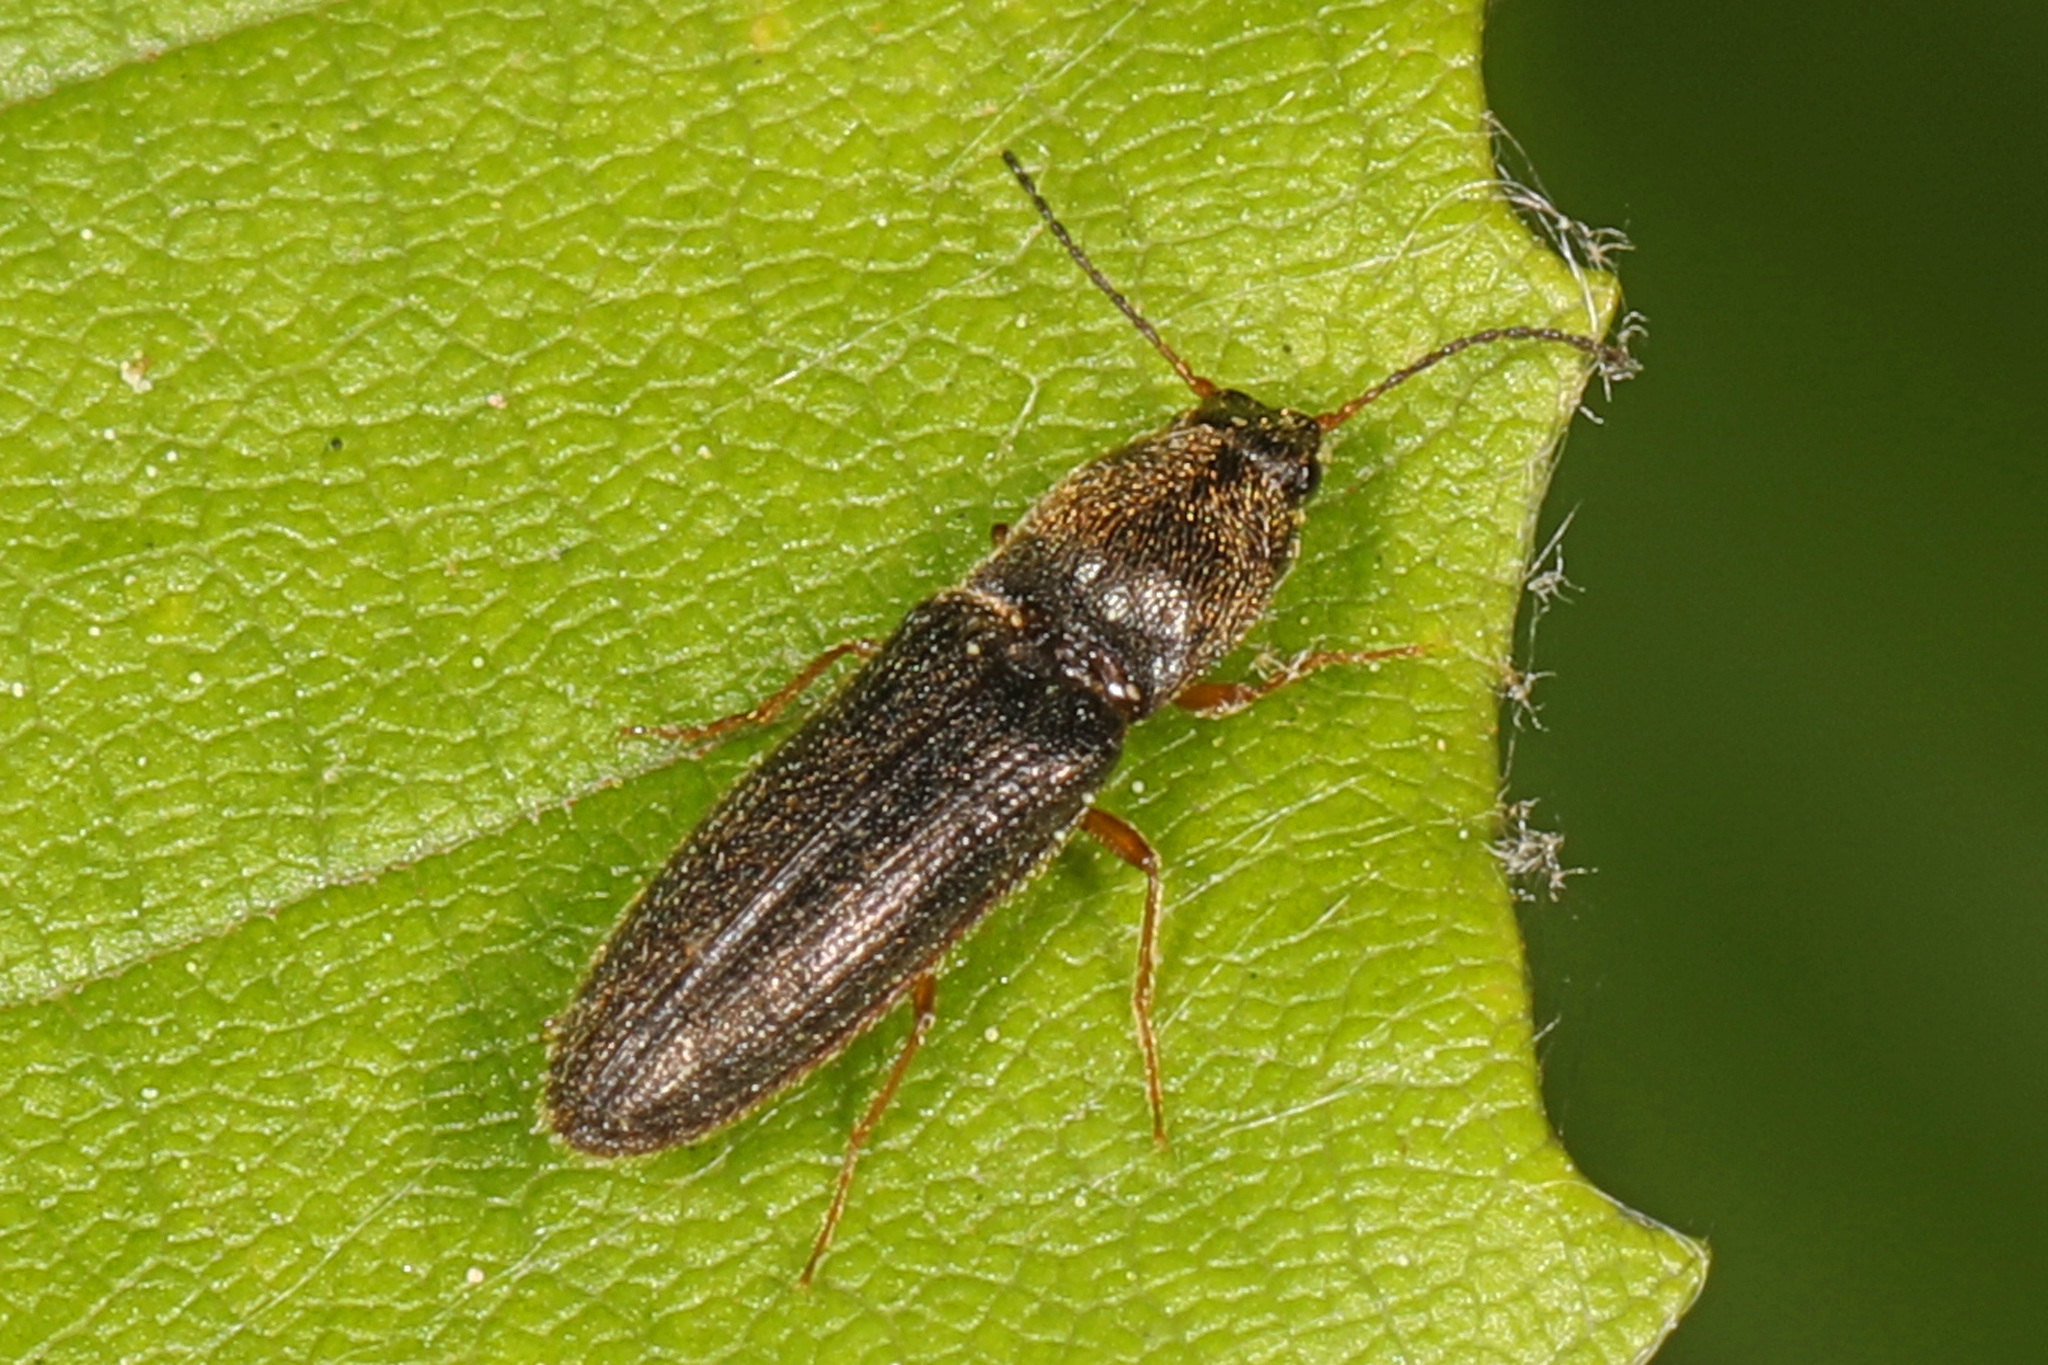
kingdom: Animalia
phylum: Arthropoda
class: Insecta
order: Coleoptera
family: Elateridae
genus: Limonius
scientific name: Limonius quercinus
